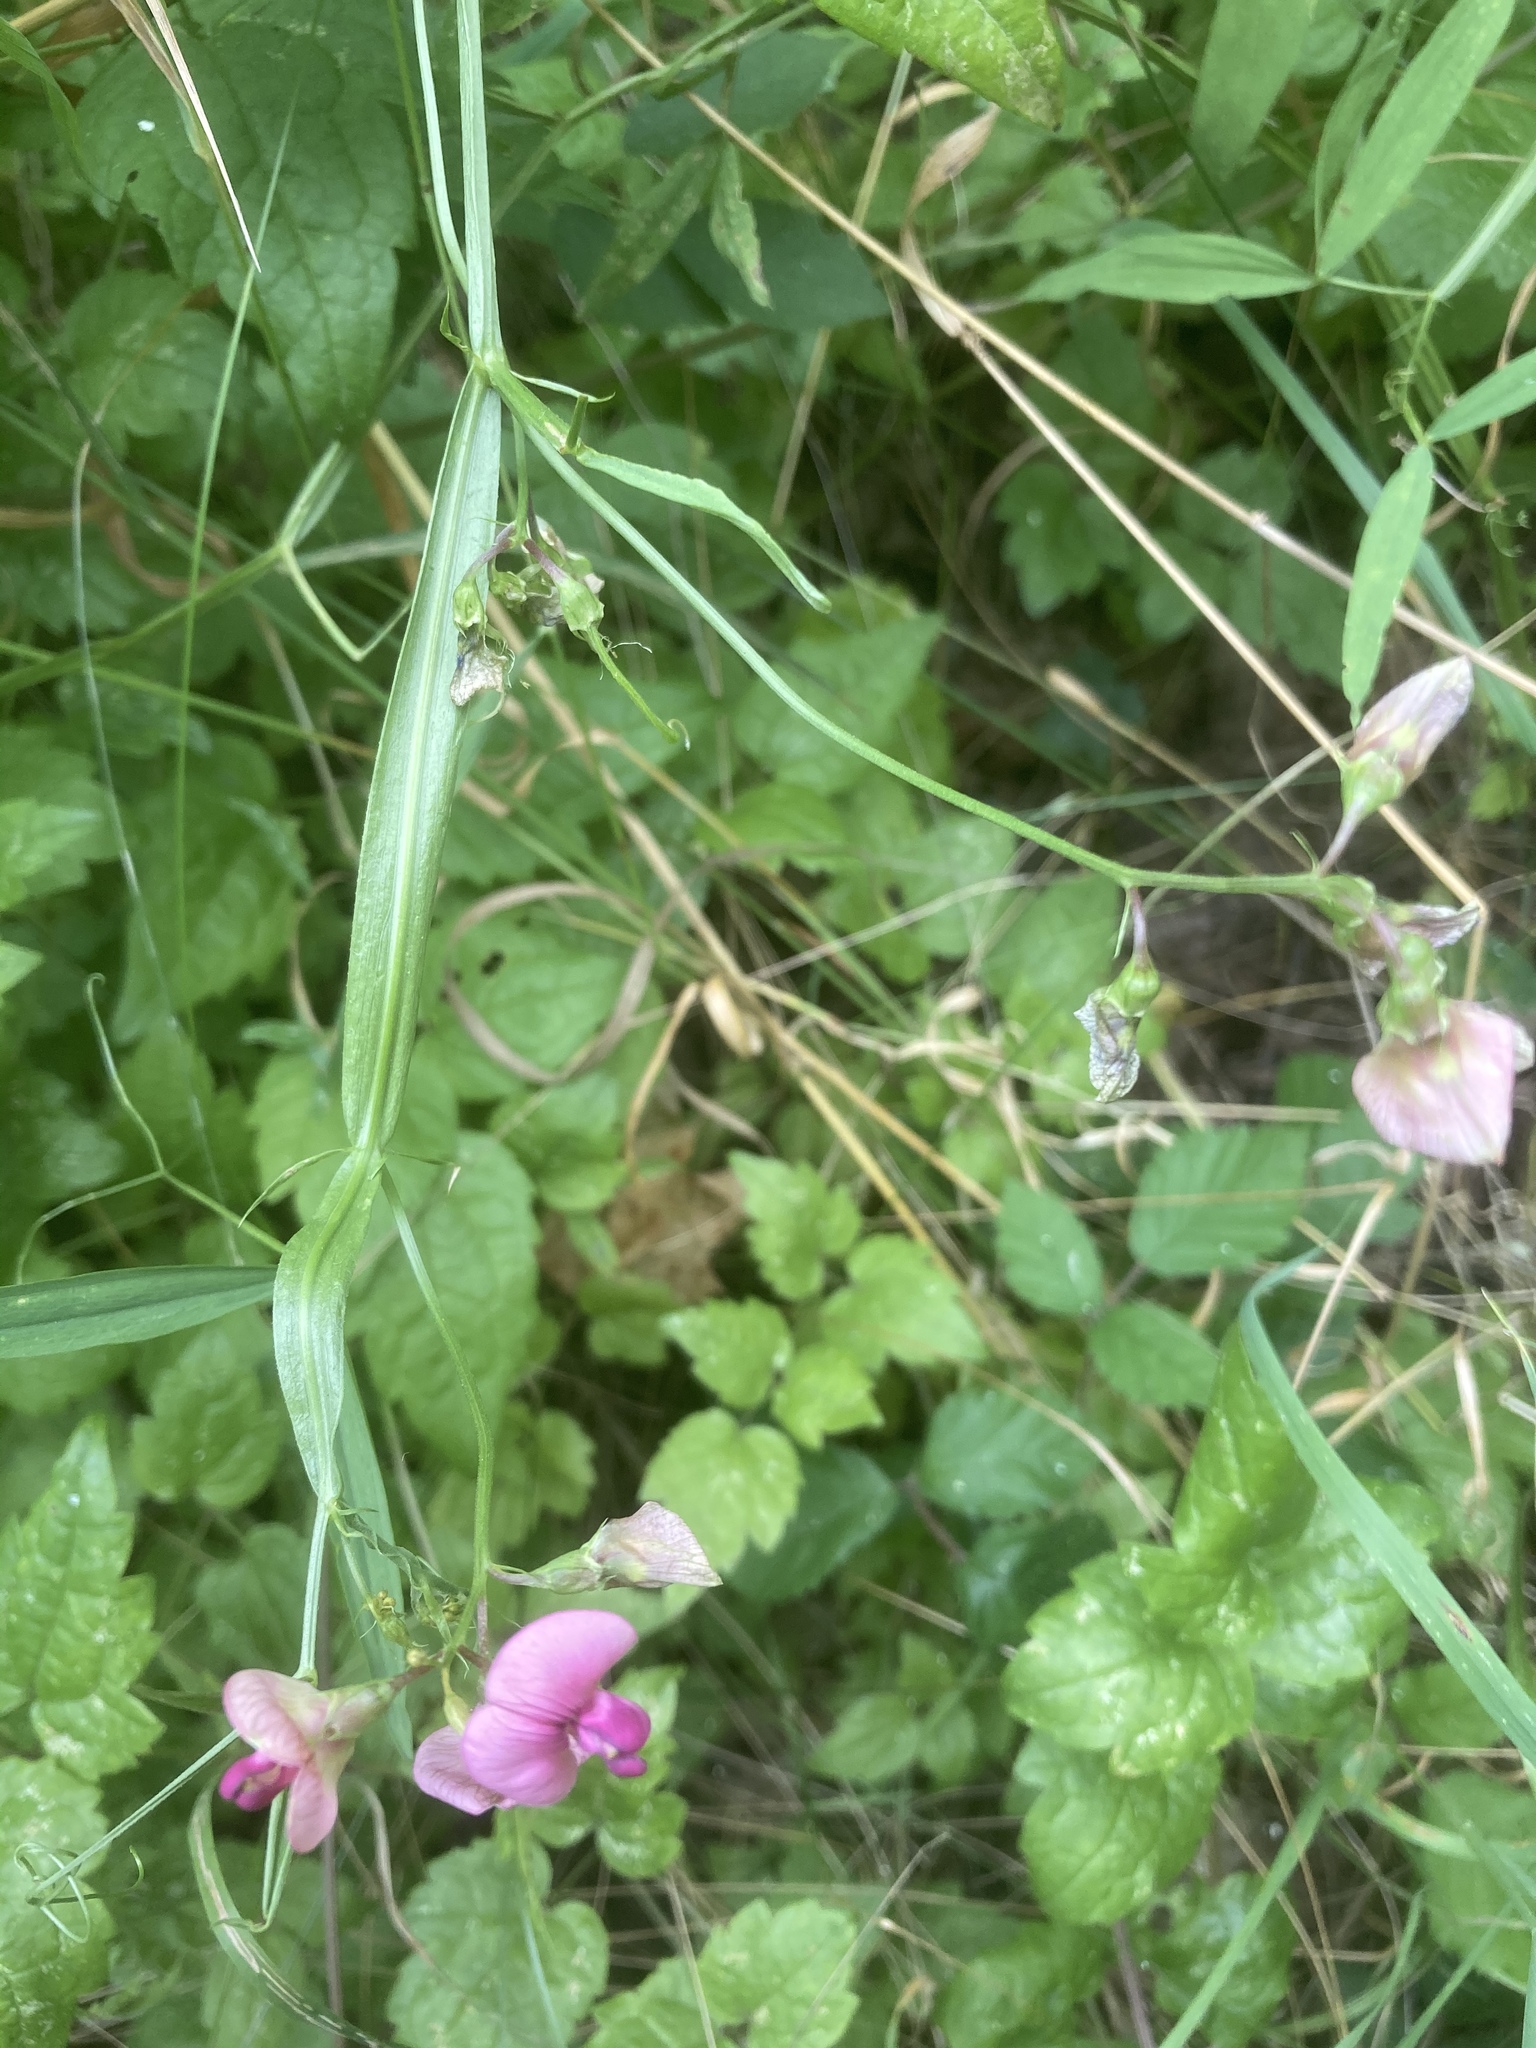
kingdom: Plantae
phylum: Tracheophyta
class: Magnoliopsida
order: Fabales
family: Fabaceae
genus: Lathyrus
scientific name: Lathyrus sylvestris
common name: Flat pea
